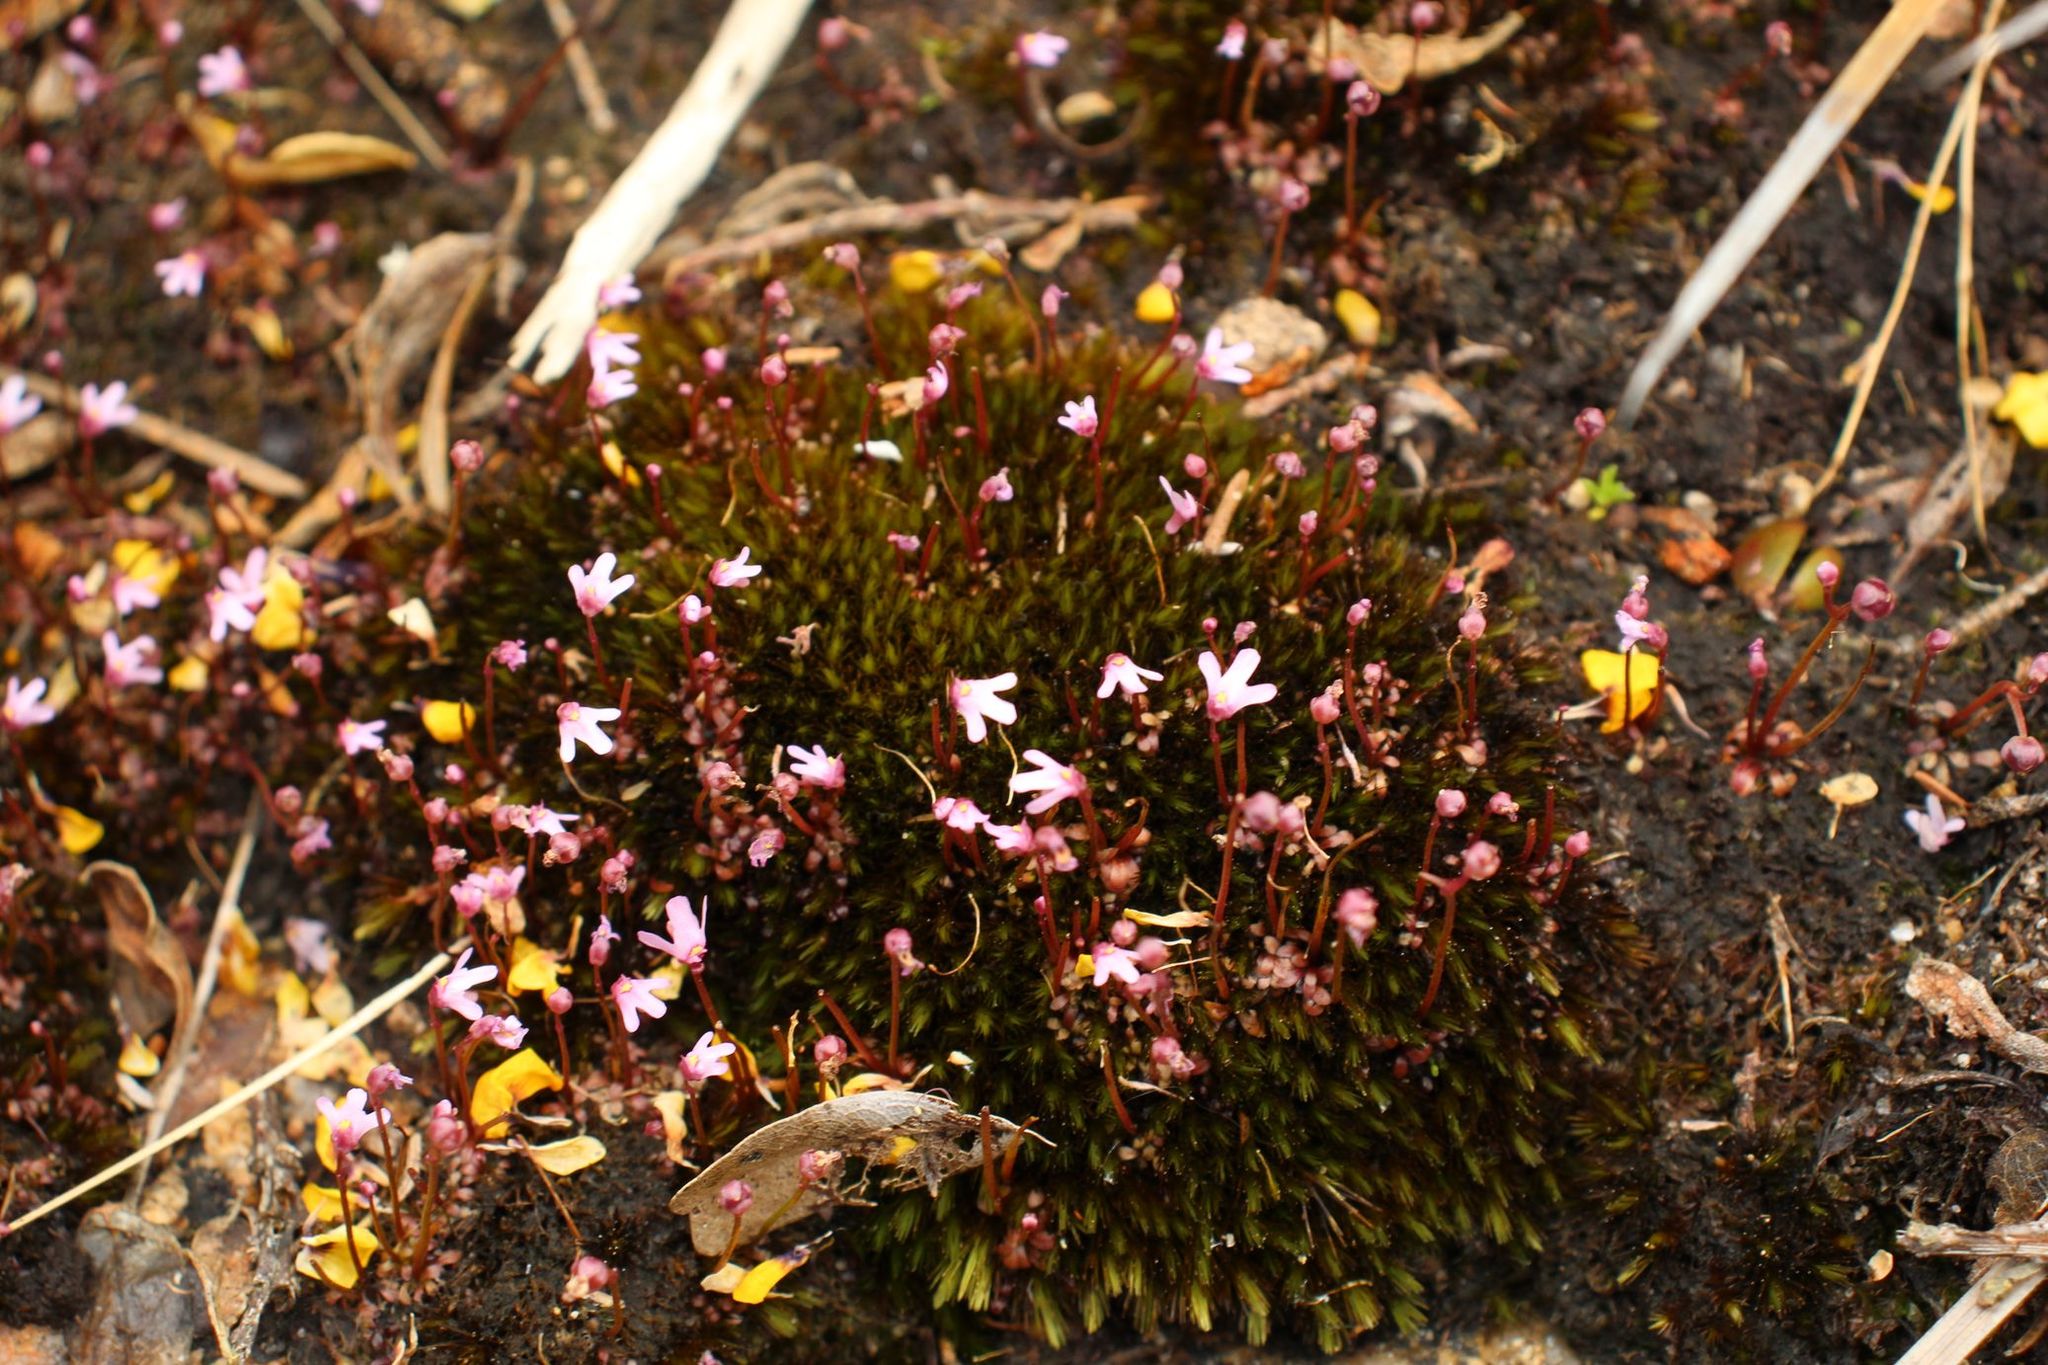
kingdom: Plantae
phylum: Tracheophyta
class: Magnoliopsida
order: Lamiales
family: Lentibulariaceae
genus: Utricularia
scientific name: Utricularia tenella
